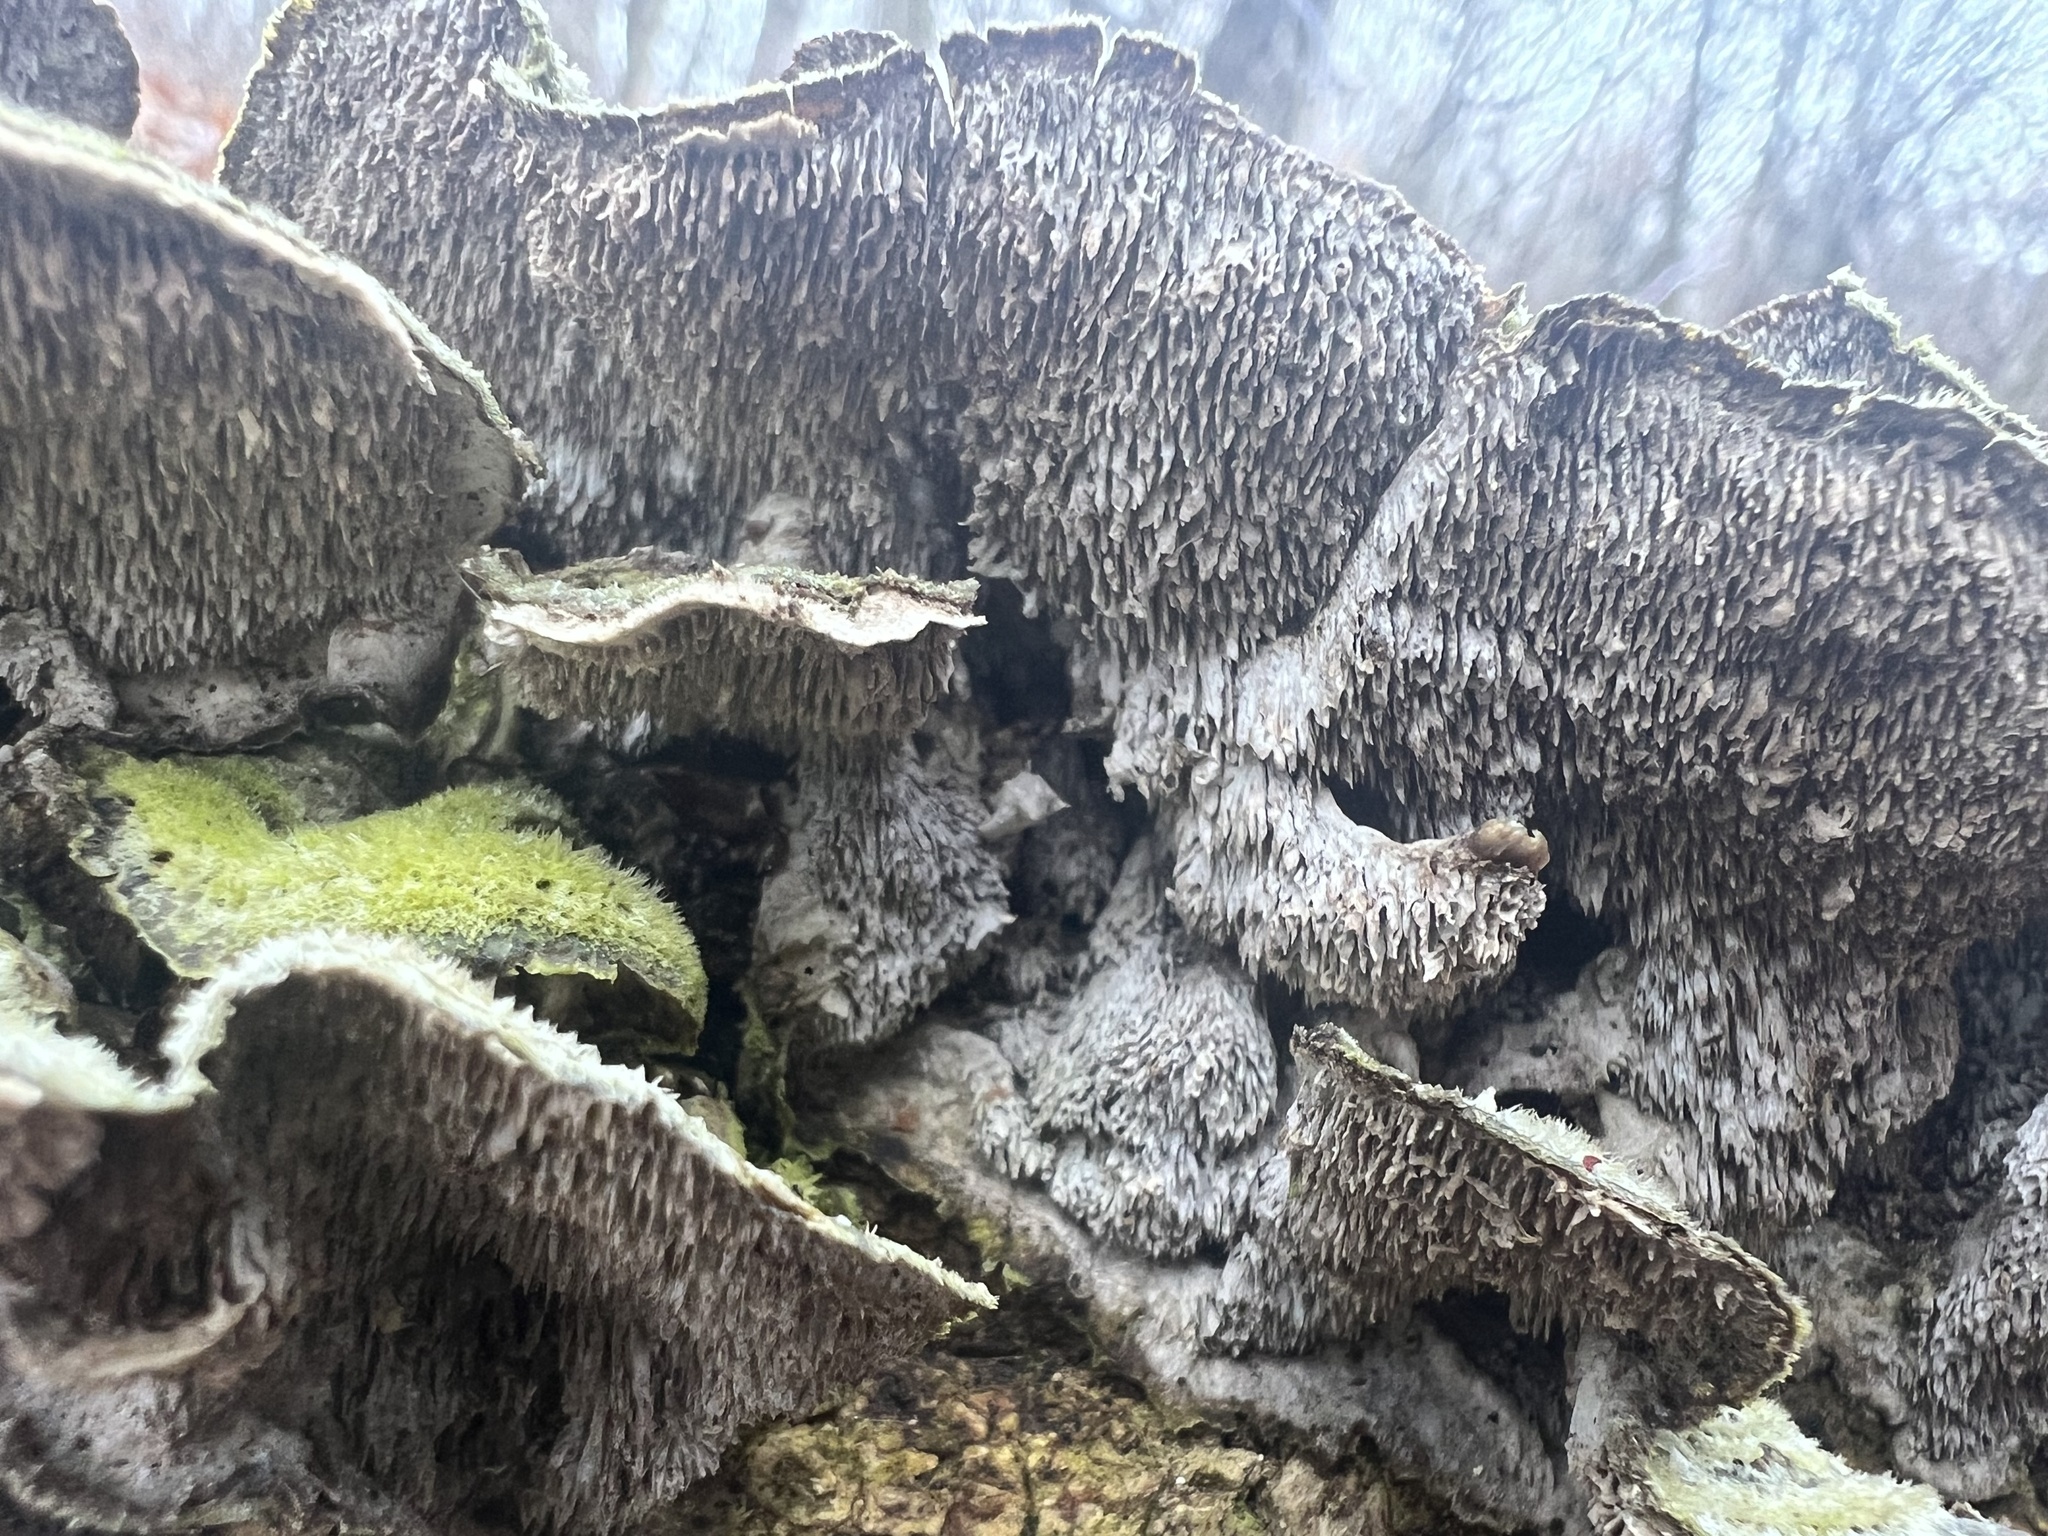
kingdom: Fungi
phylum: Basidiomycota
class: Agaricomycetes
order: Polyporales
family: Cerrenaceae
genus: Cerrena
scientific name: Cerrena unicolor
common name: Mossy maze polypore
